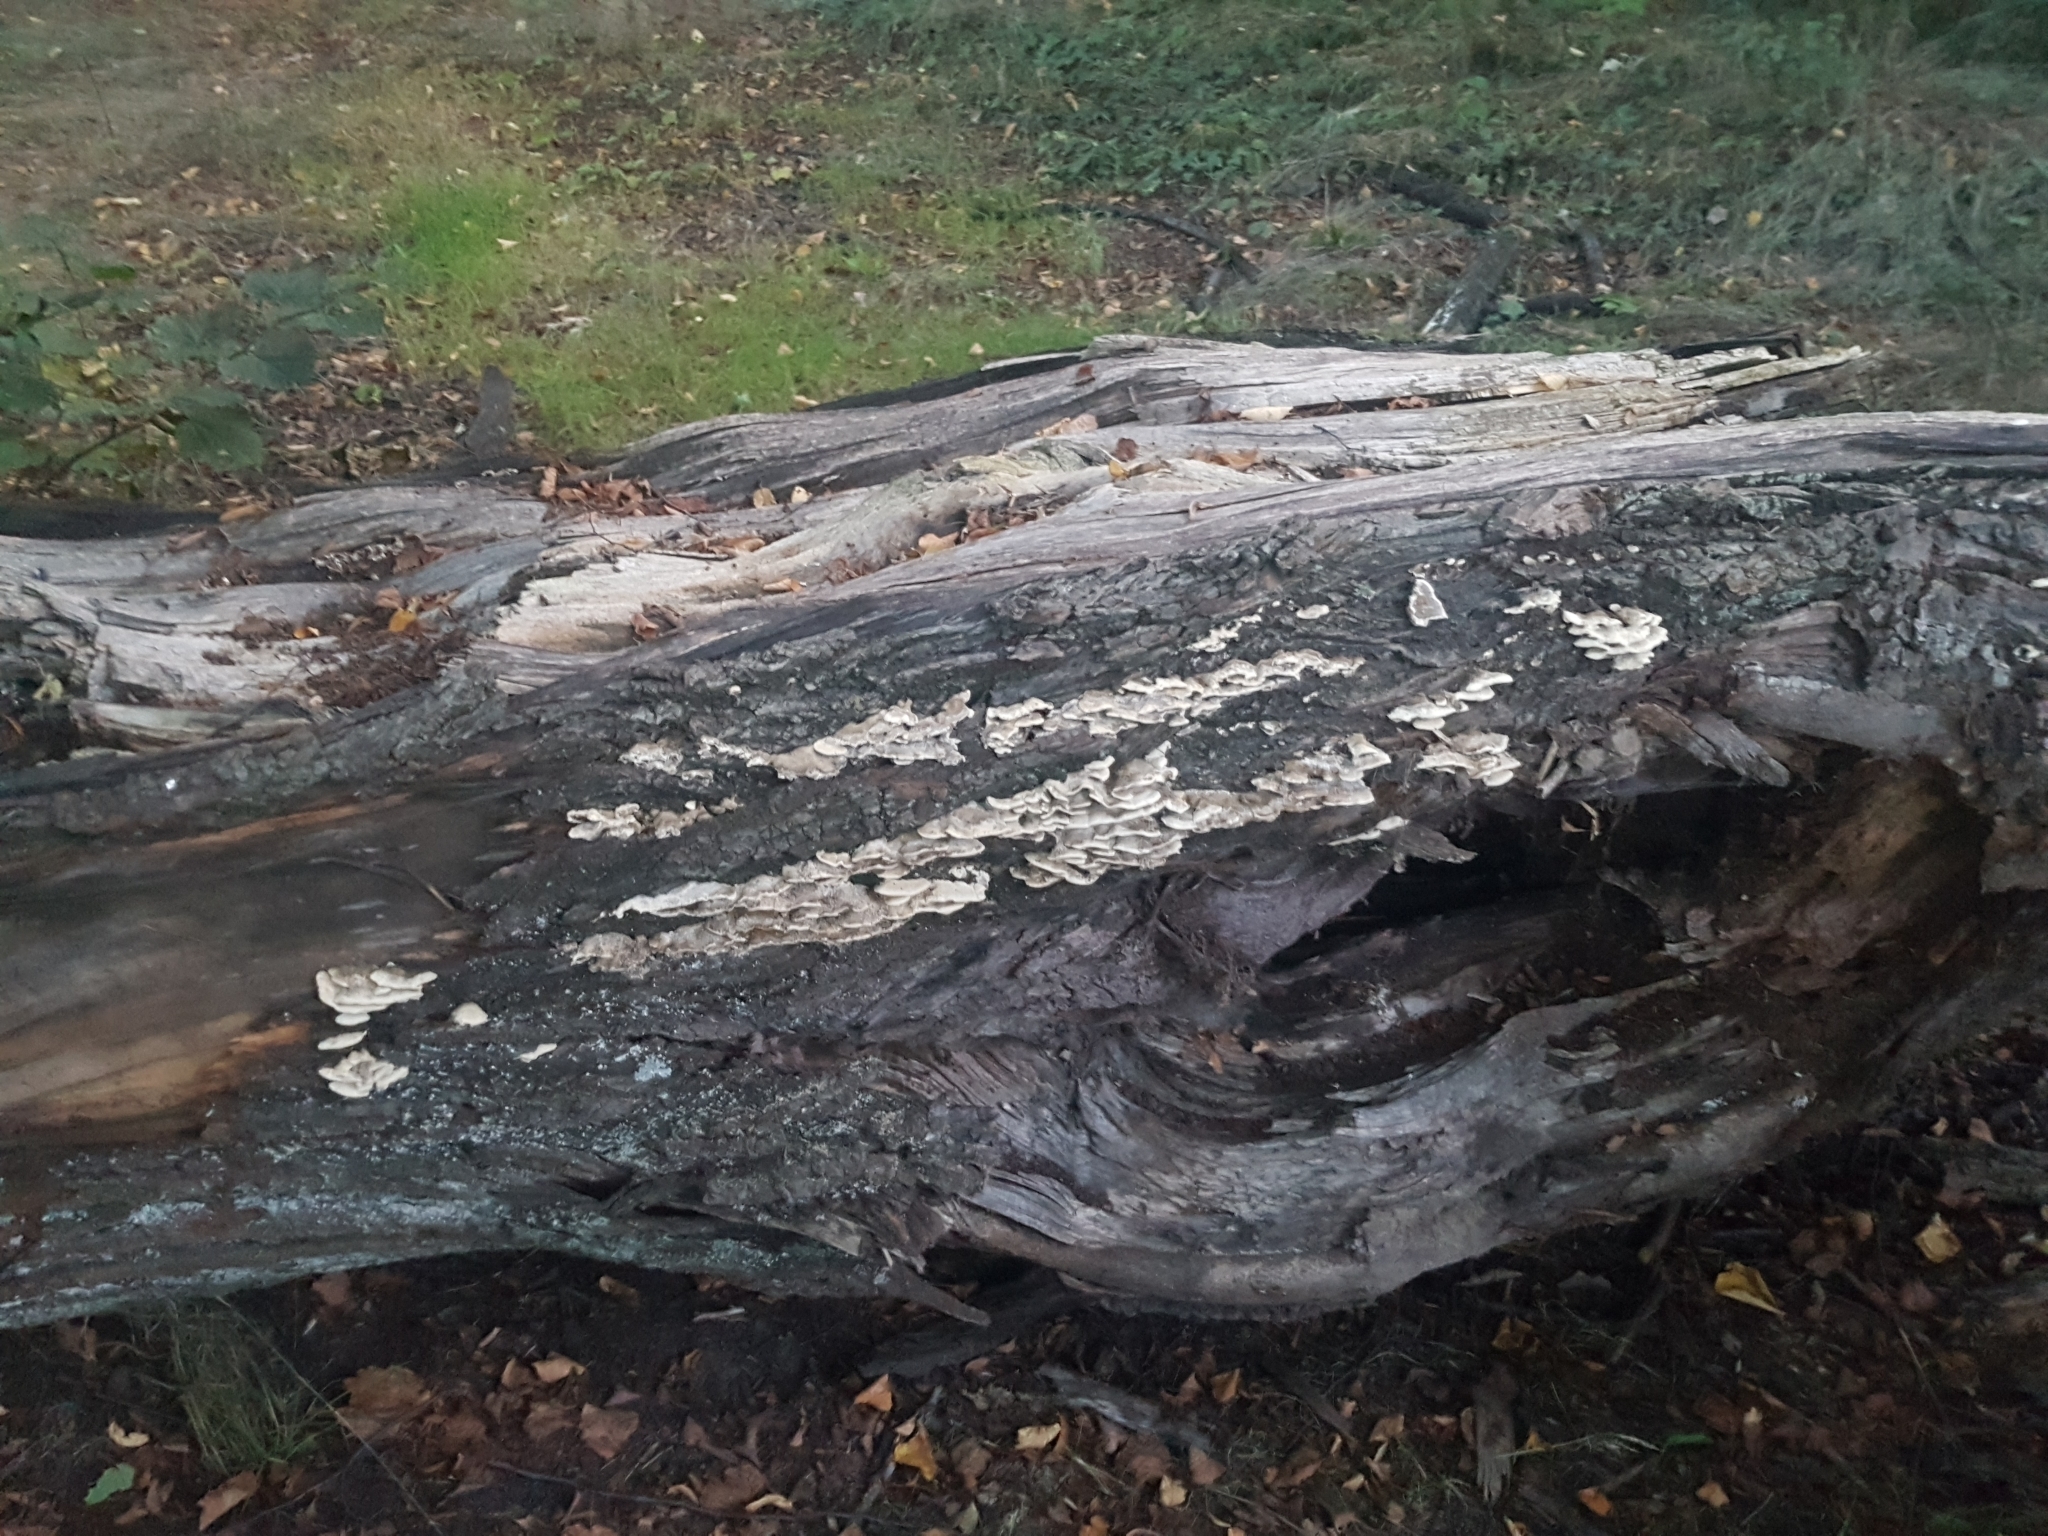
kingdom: Fungi
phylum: Basidiomycota
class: Agaricomycetes
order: Polyporales
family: Phanerochaetaceae
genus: Bjerkandera
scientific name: Bjerkandera adusta
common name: Smoky bracket
